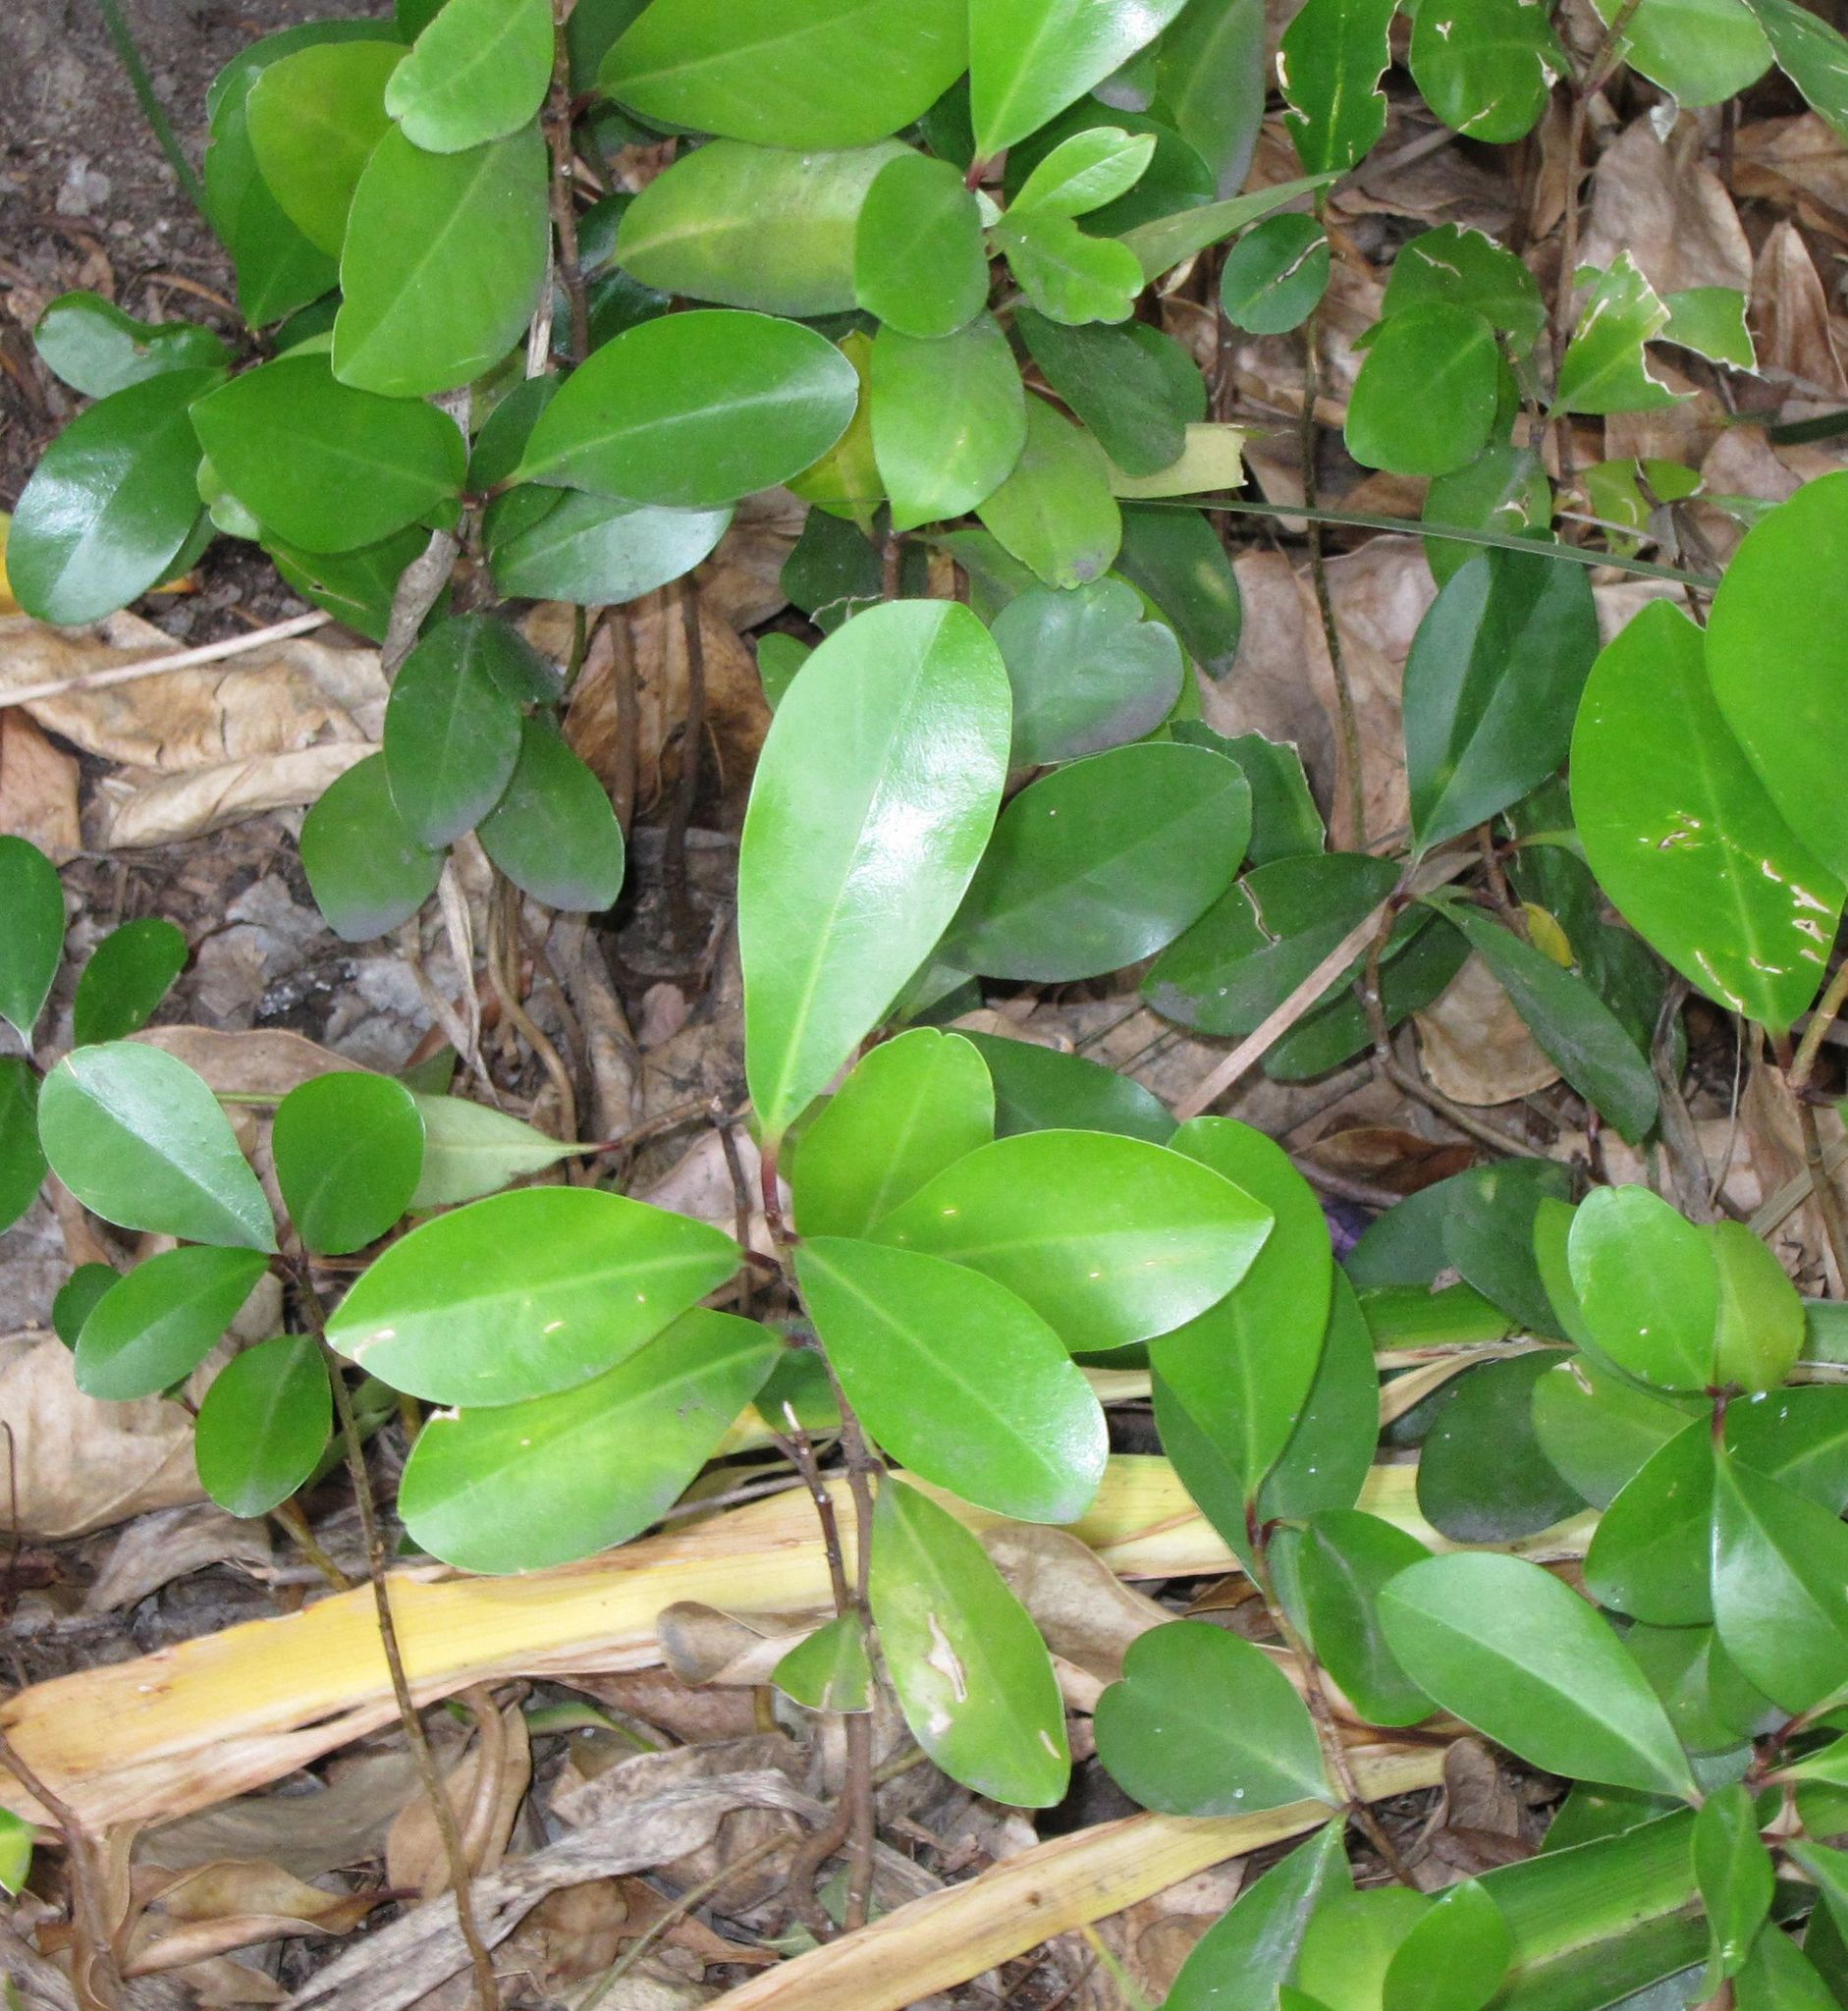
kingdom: Plantae
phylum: Tracheophyta
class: Magnoliopsida
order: Cucurbitales
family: Corynocarpaceae
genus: Corynocarpus
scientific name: Corynocarpus laevigatus
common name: New zealand laurel
